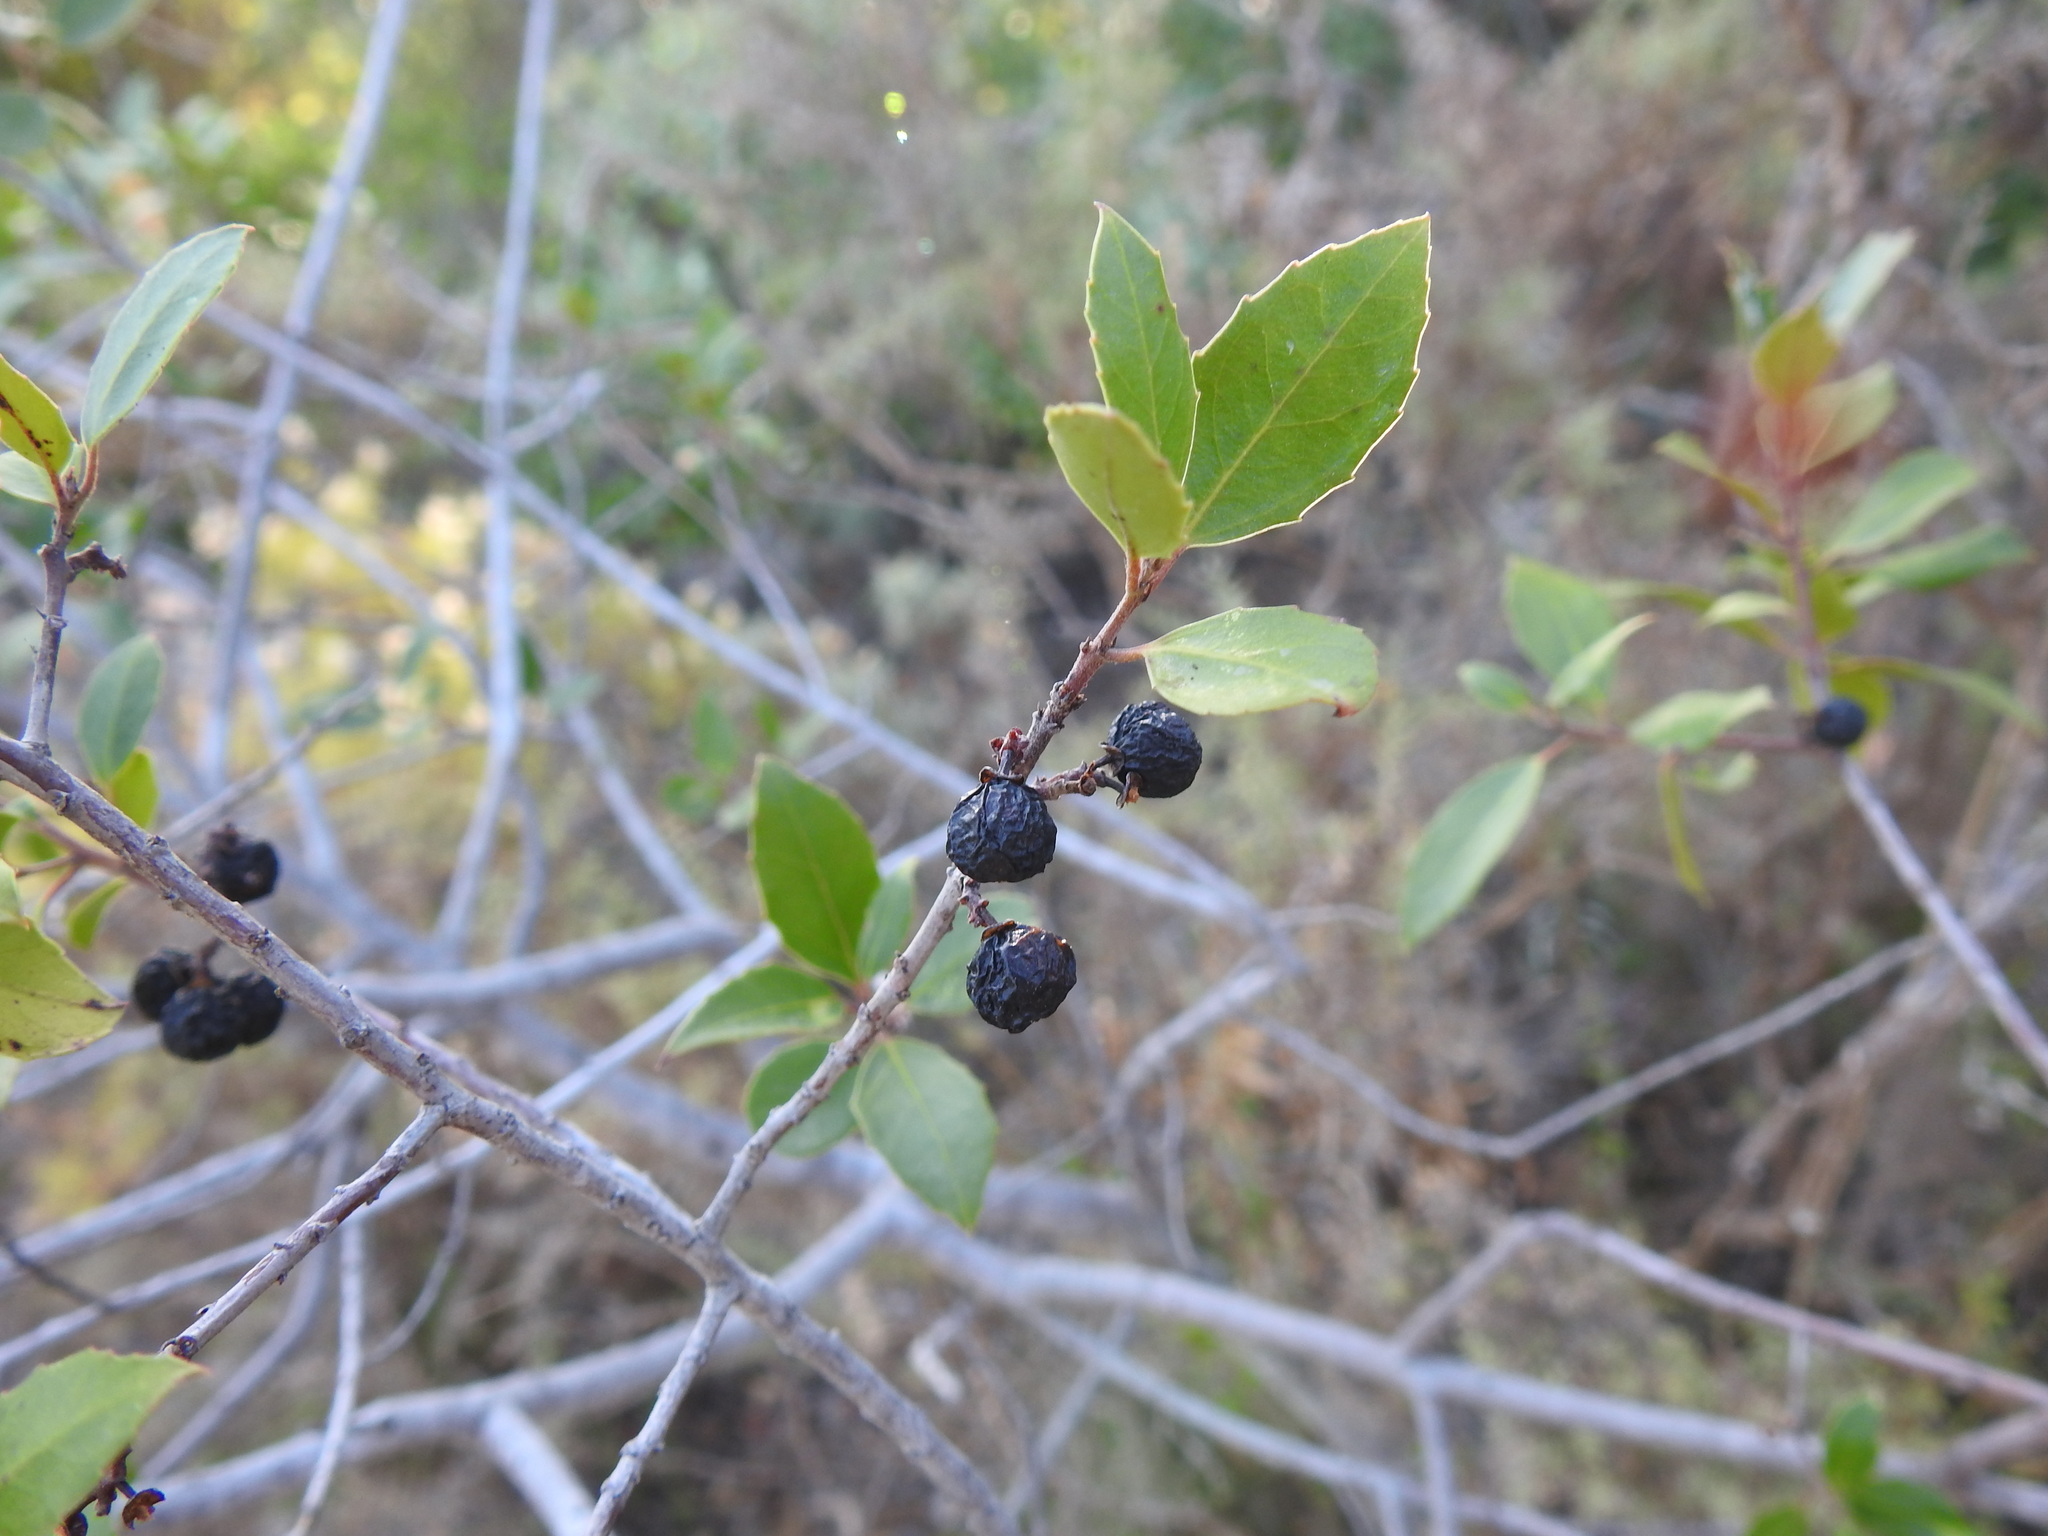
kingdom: Plantae
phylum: Tracheophyta
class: Magnoliopsida
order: Rosales
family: Rhamnaceae
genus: Rhamnus
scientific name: Rhamnus alaternus
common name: Mediterranean buckthorn
